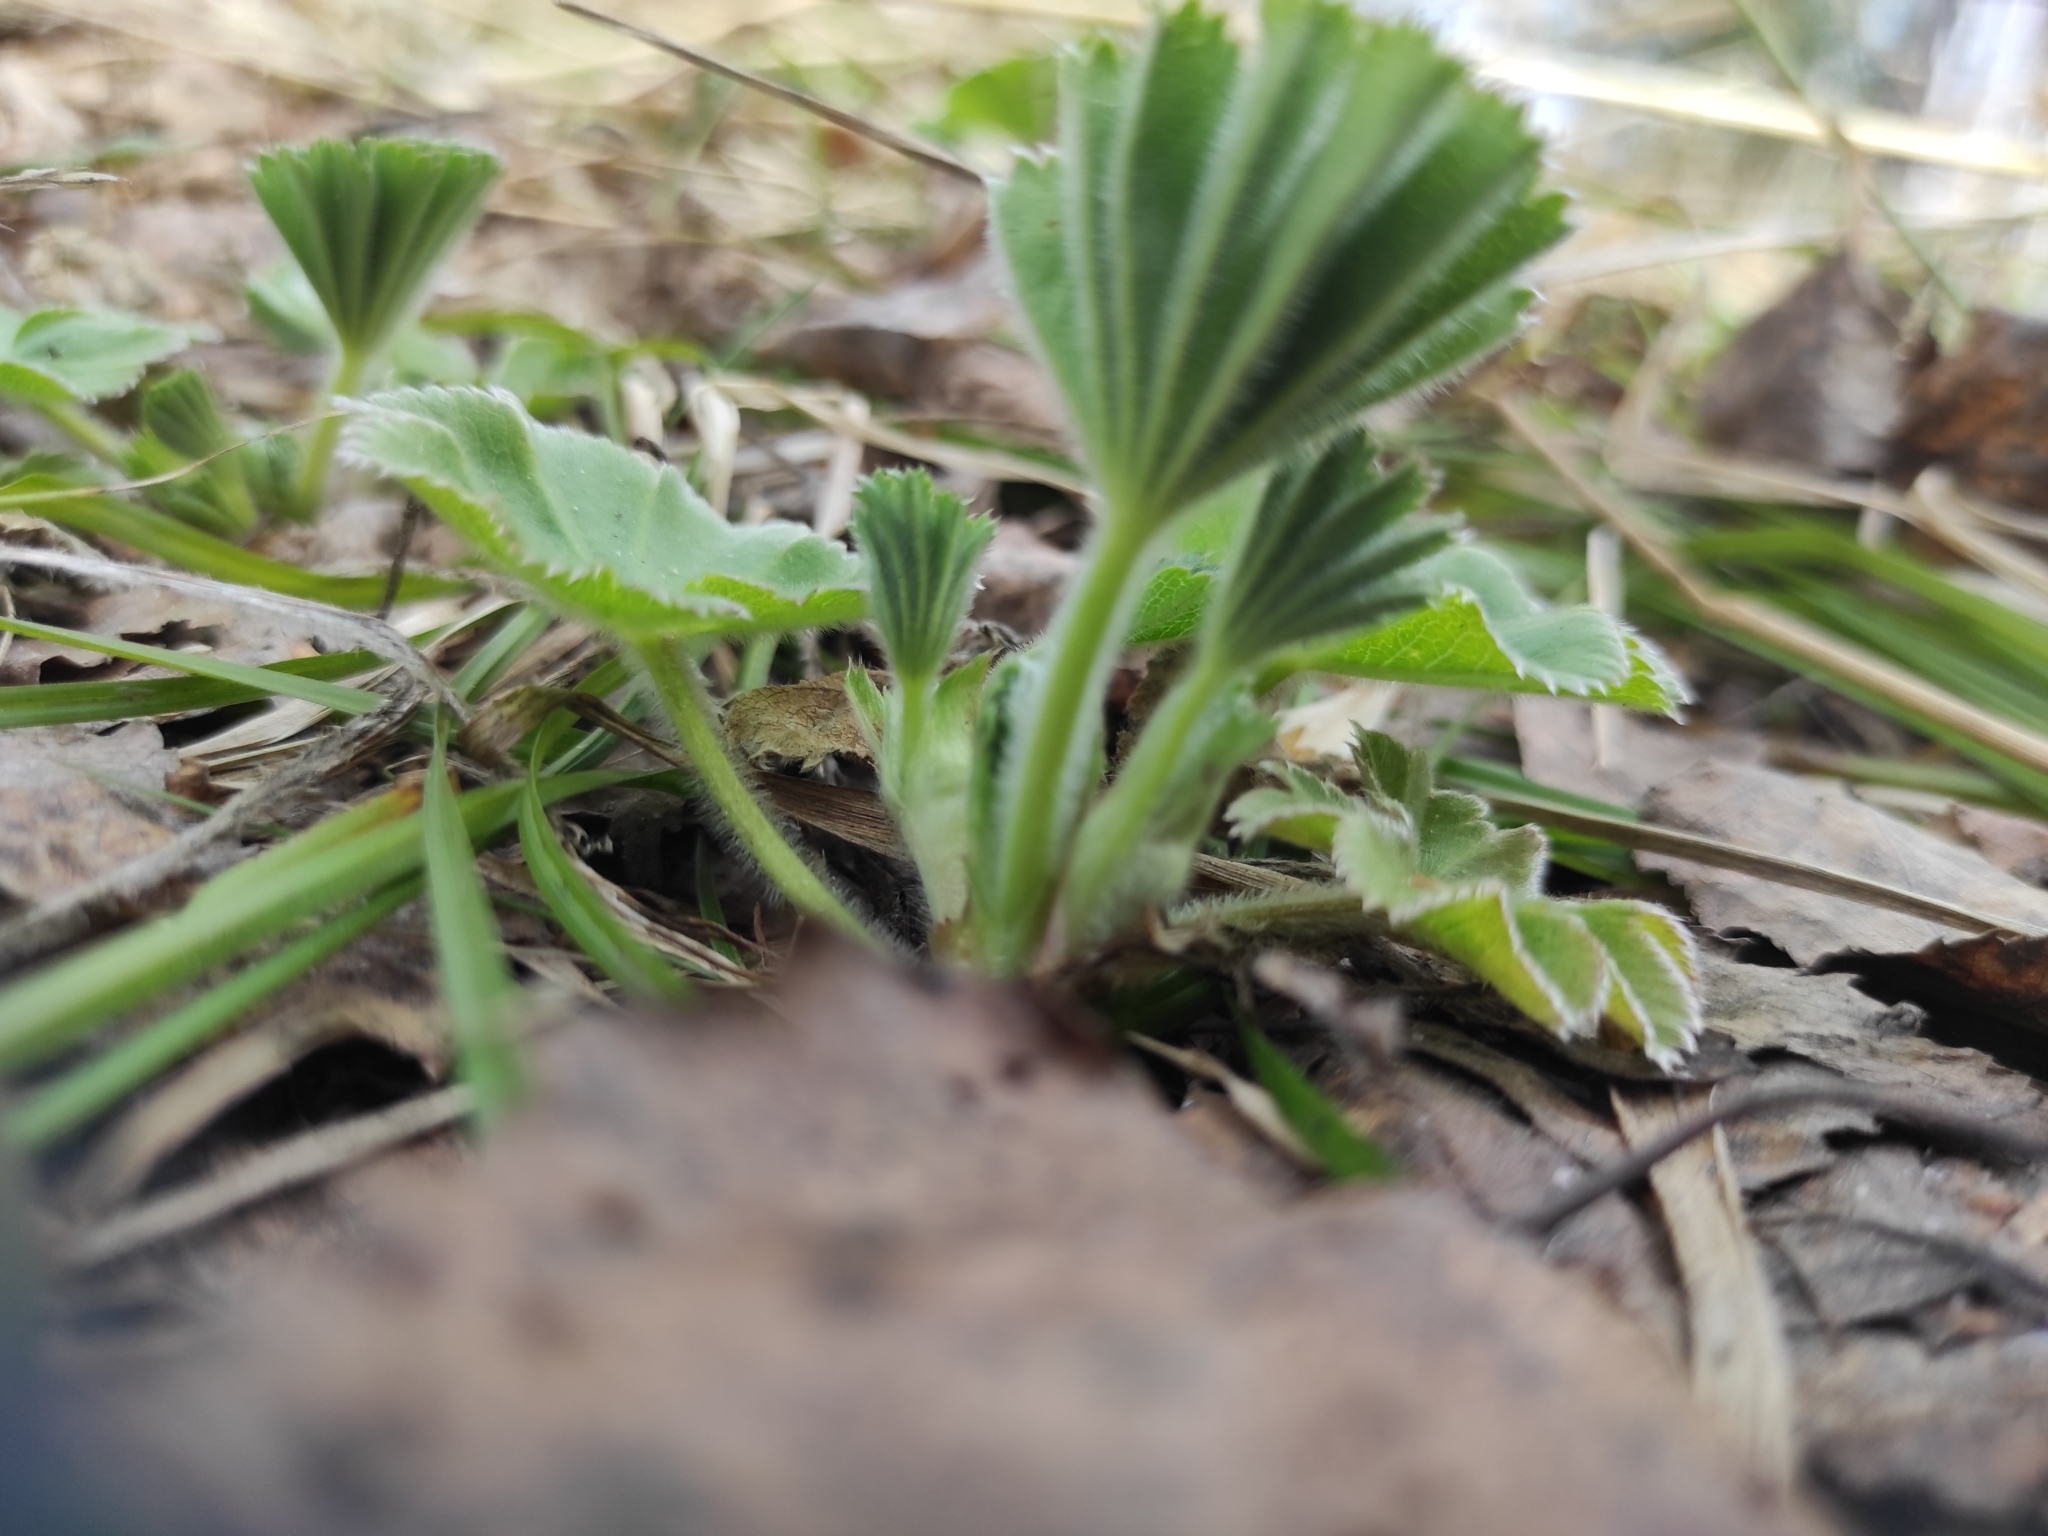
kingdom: Plantae
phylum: Tracheophyta
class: Magnoliopsida
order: Rosales
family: Rosaceae
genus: Alchemilla
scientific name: Alchemilla
